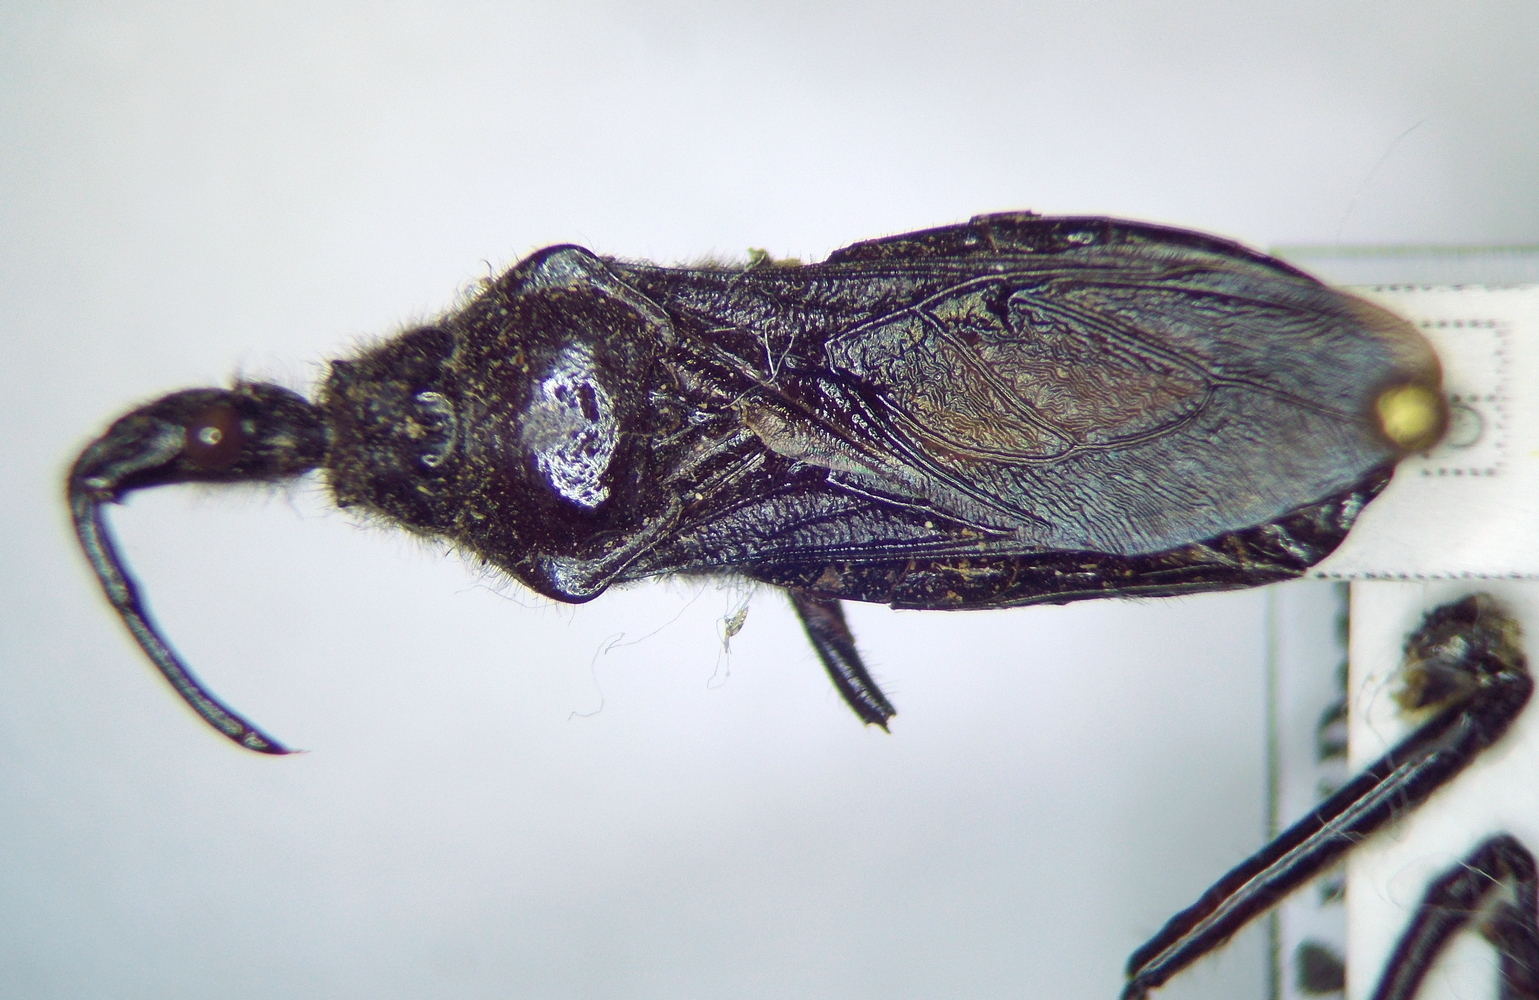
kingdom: Animalia
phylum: Arthropoda
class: Insecta
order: Hemiptera
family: Reduviidae
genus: Rhynocoris
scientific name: Rhynocoris ibericus
